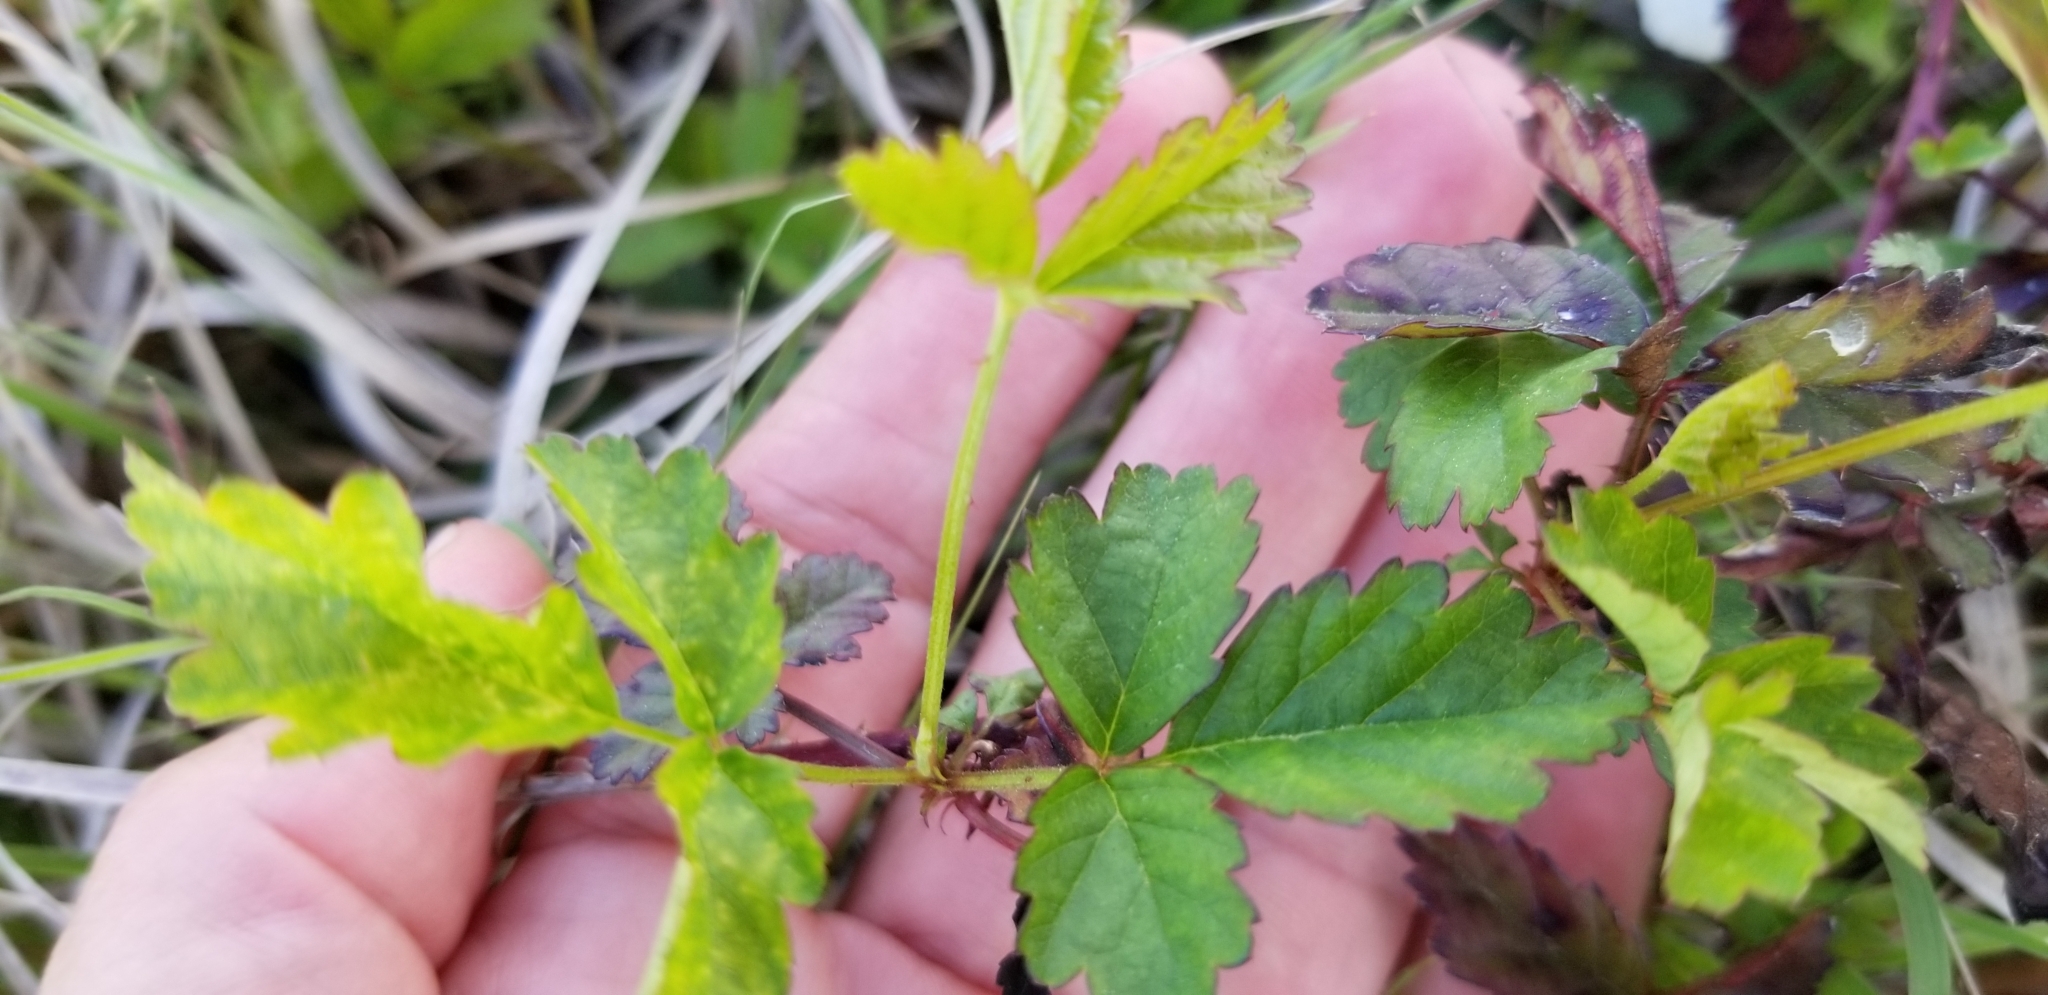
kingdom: Plantae
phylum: Tracheophyta
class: Magnoliopsida
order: Rosales
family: Rosaceae
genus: Rubus
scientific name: Rubus trivialis
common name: Southern dewberry
